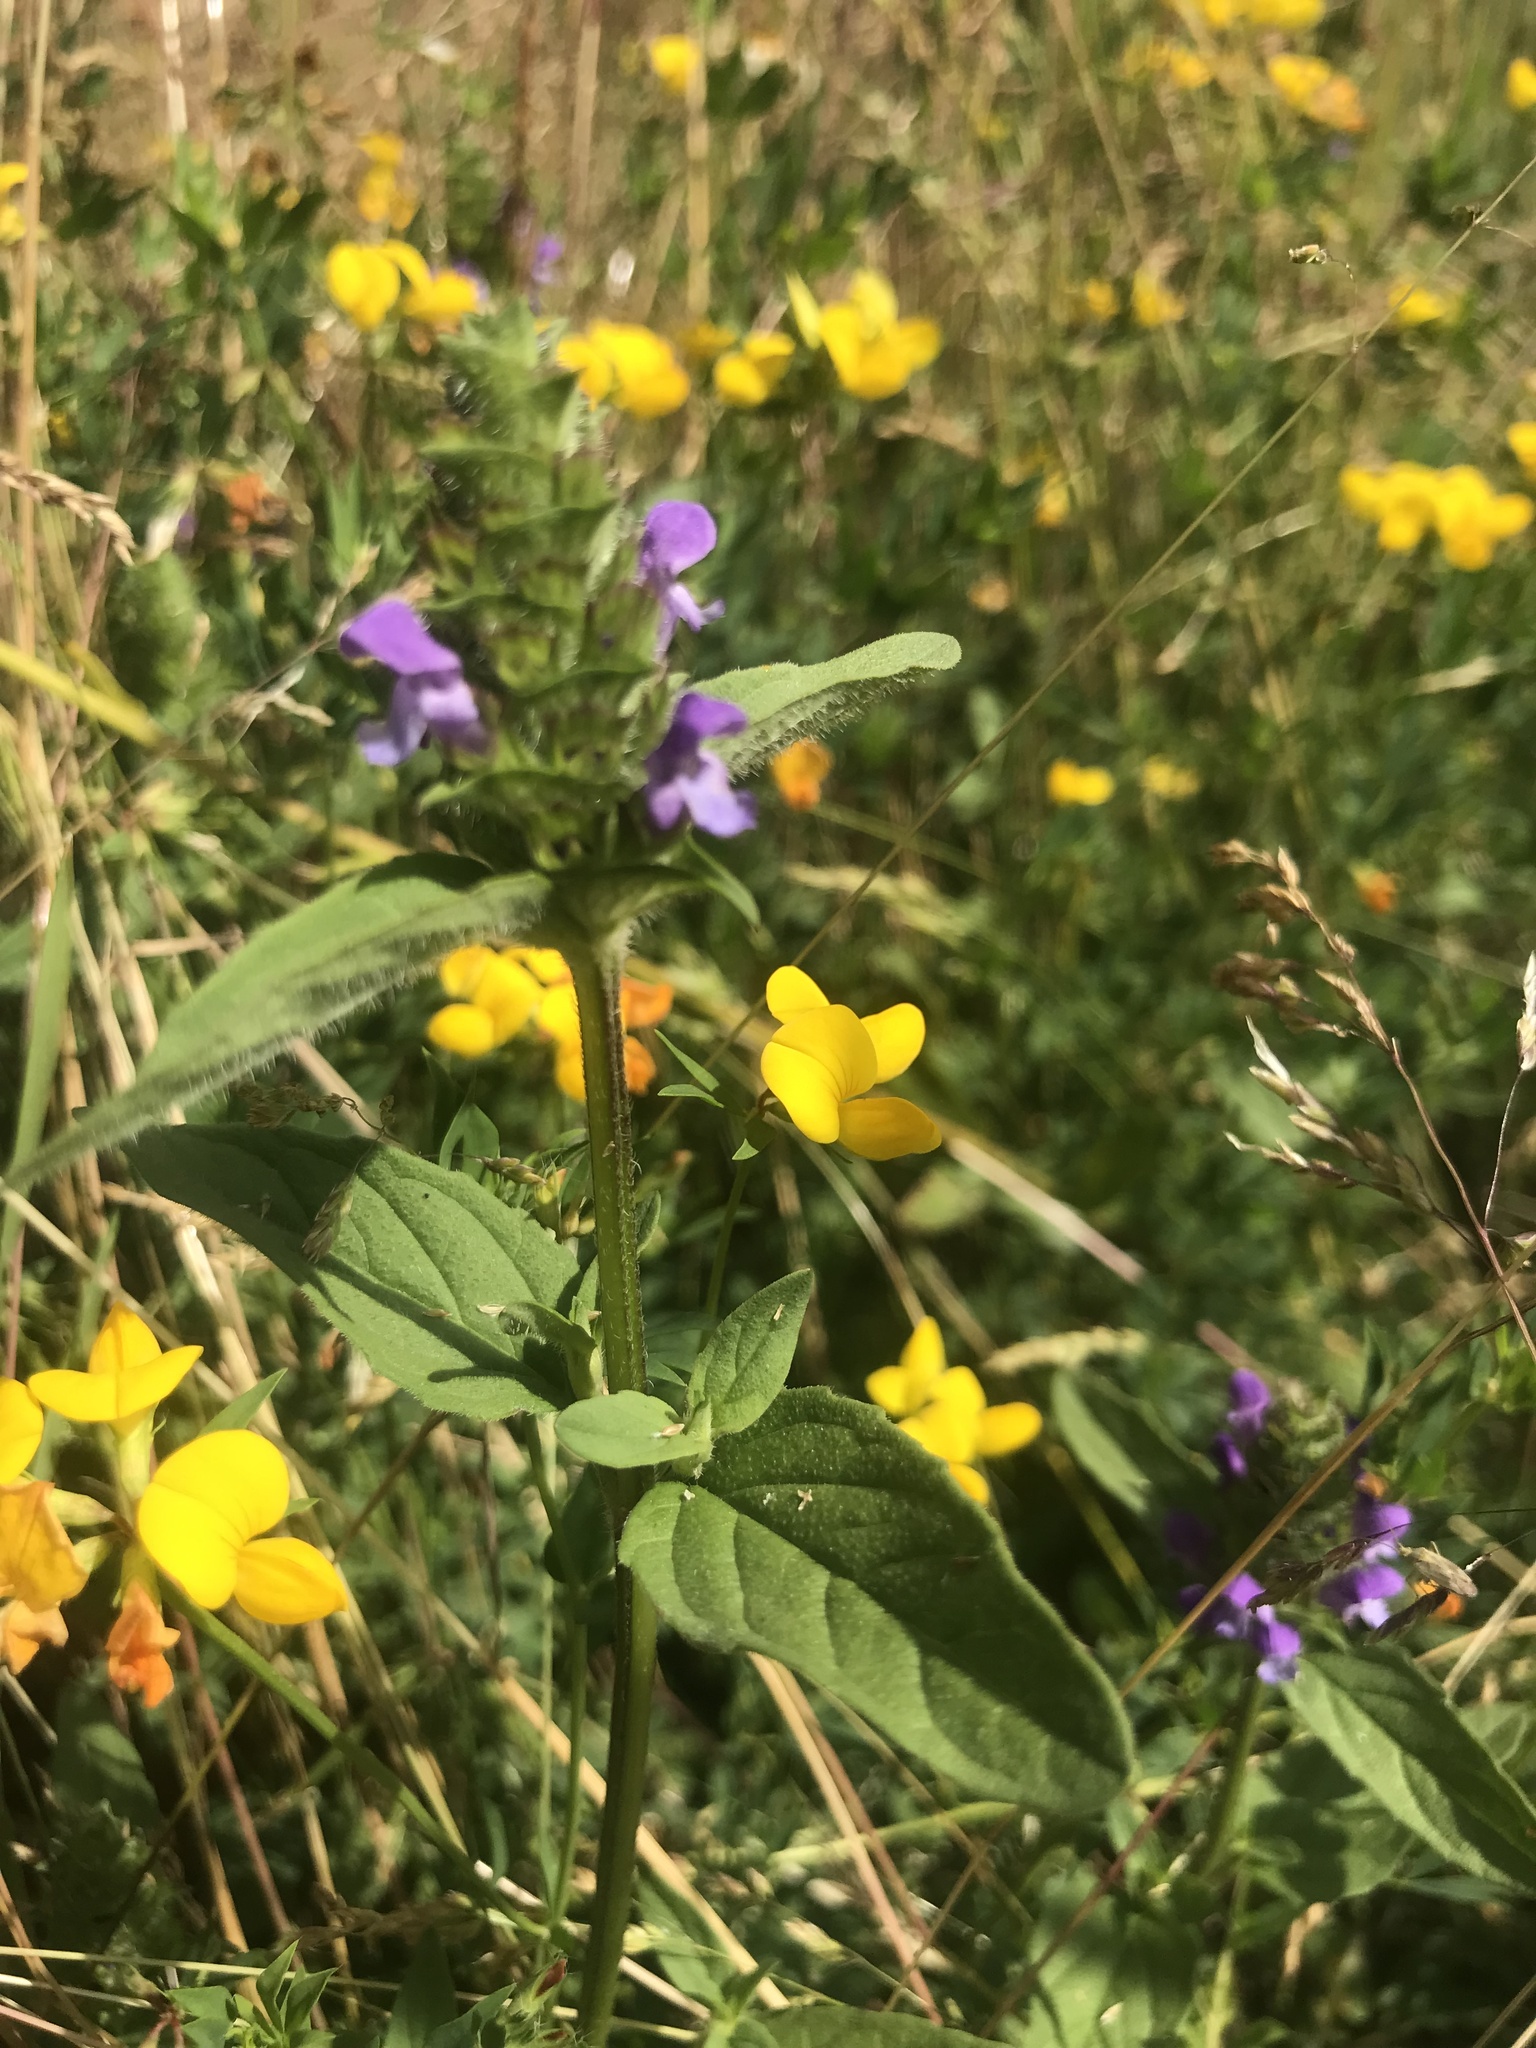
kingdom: Plantae
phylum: Tracheophyta
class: Magnoliopsida
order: Lamiales
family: Lamiaceae
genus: Prunella
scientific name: Prunella vulgaris
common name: Heal-all
